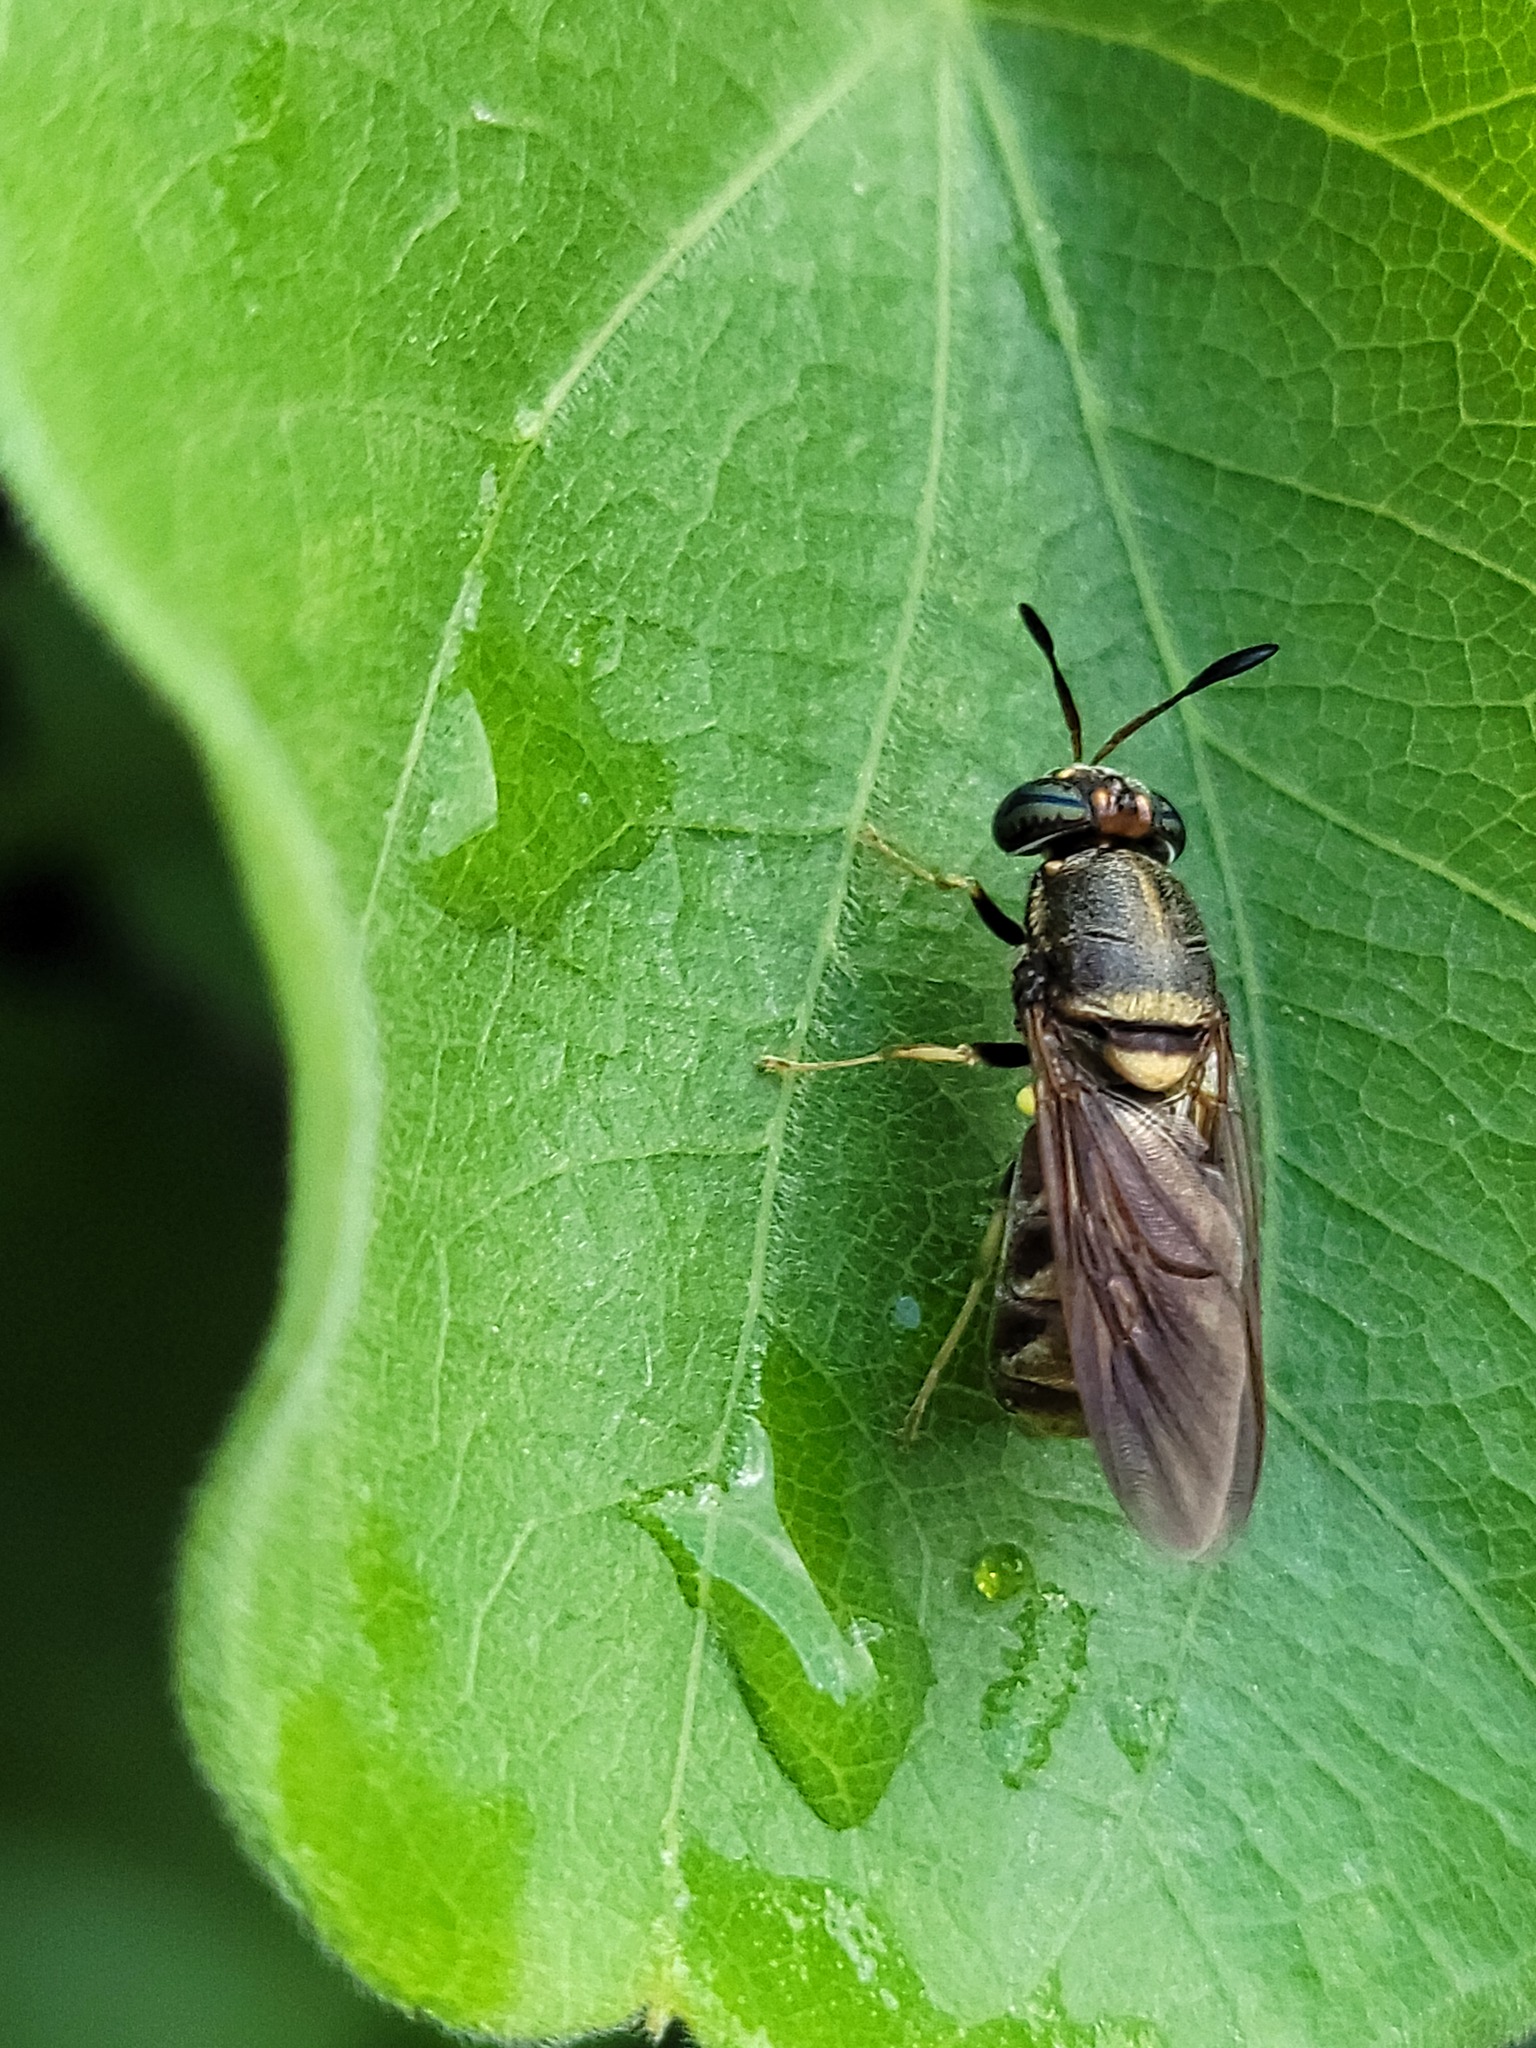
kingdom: Animalia
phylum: Arthropoda
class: Insecta
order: Diptera
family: Stratiomyidae
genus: Hermetia
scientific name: Hermetia chrysopila
